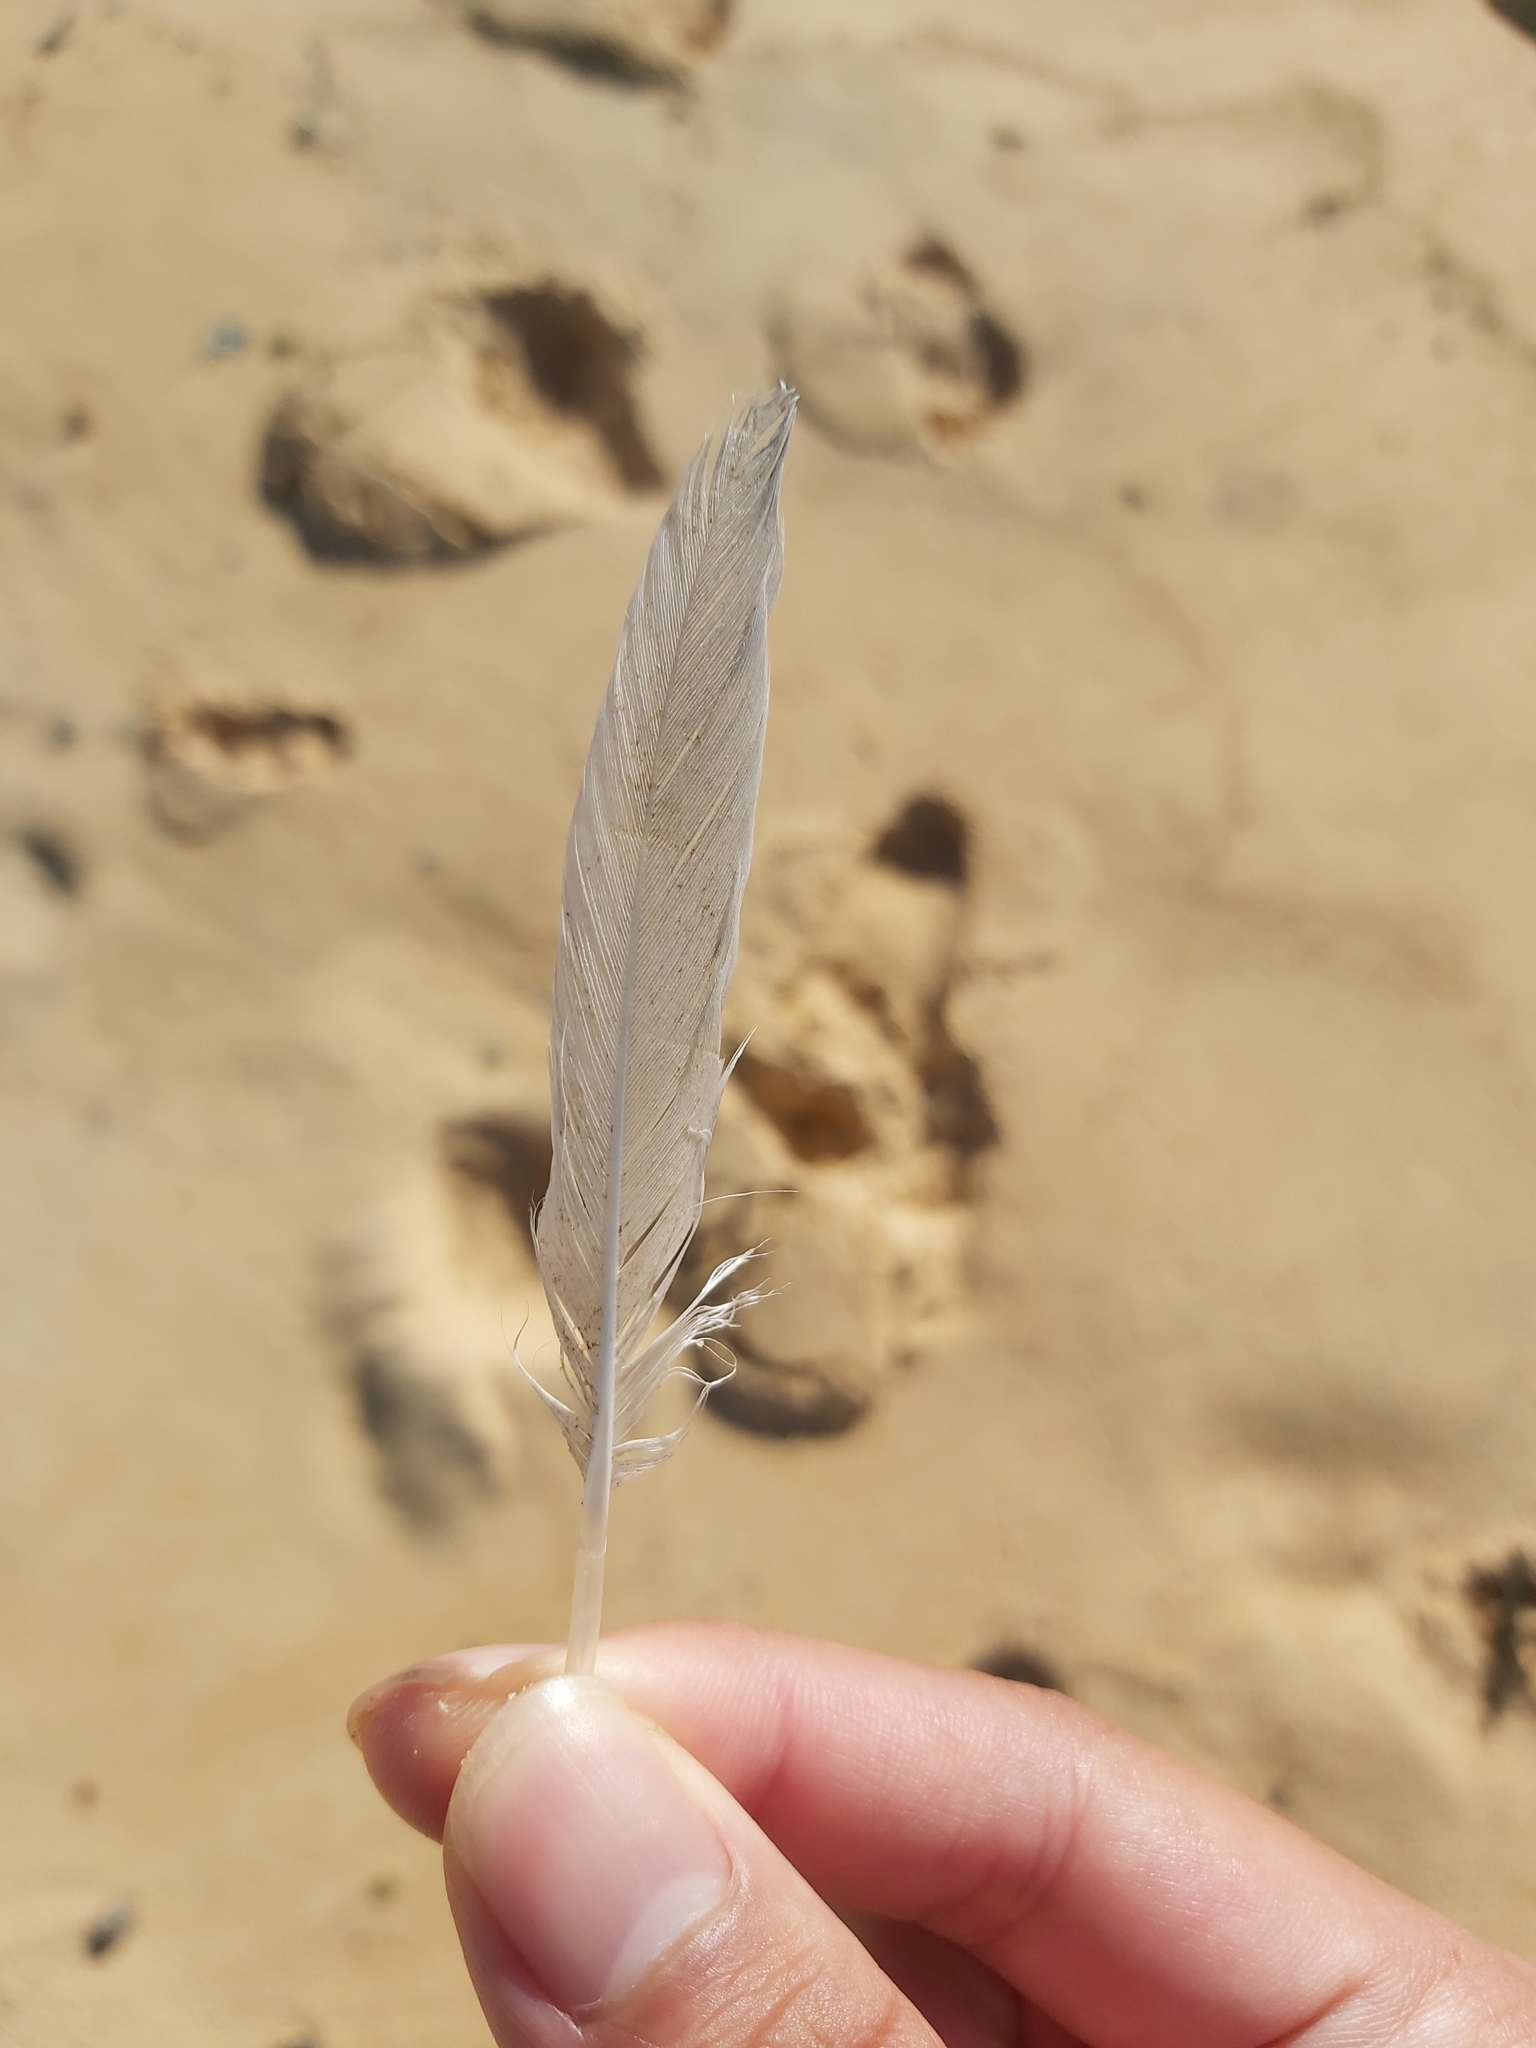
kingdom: Animalia
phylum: Chordata
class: Aves
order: Charadriiformes
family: Laridae
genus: Chroicocephalus
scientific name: Chroicocephalus novaehollandiae
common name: Silver gull
